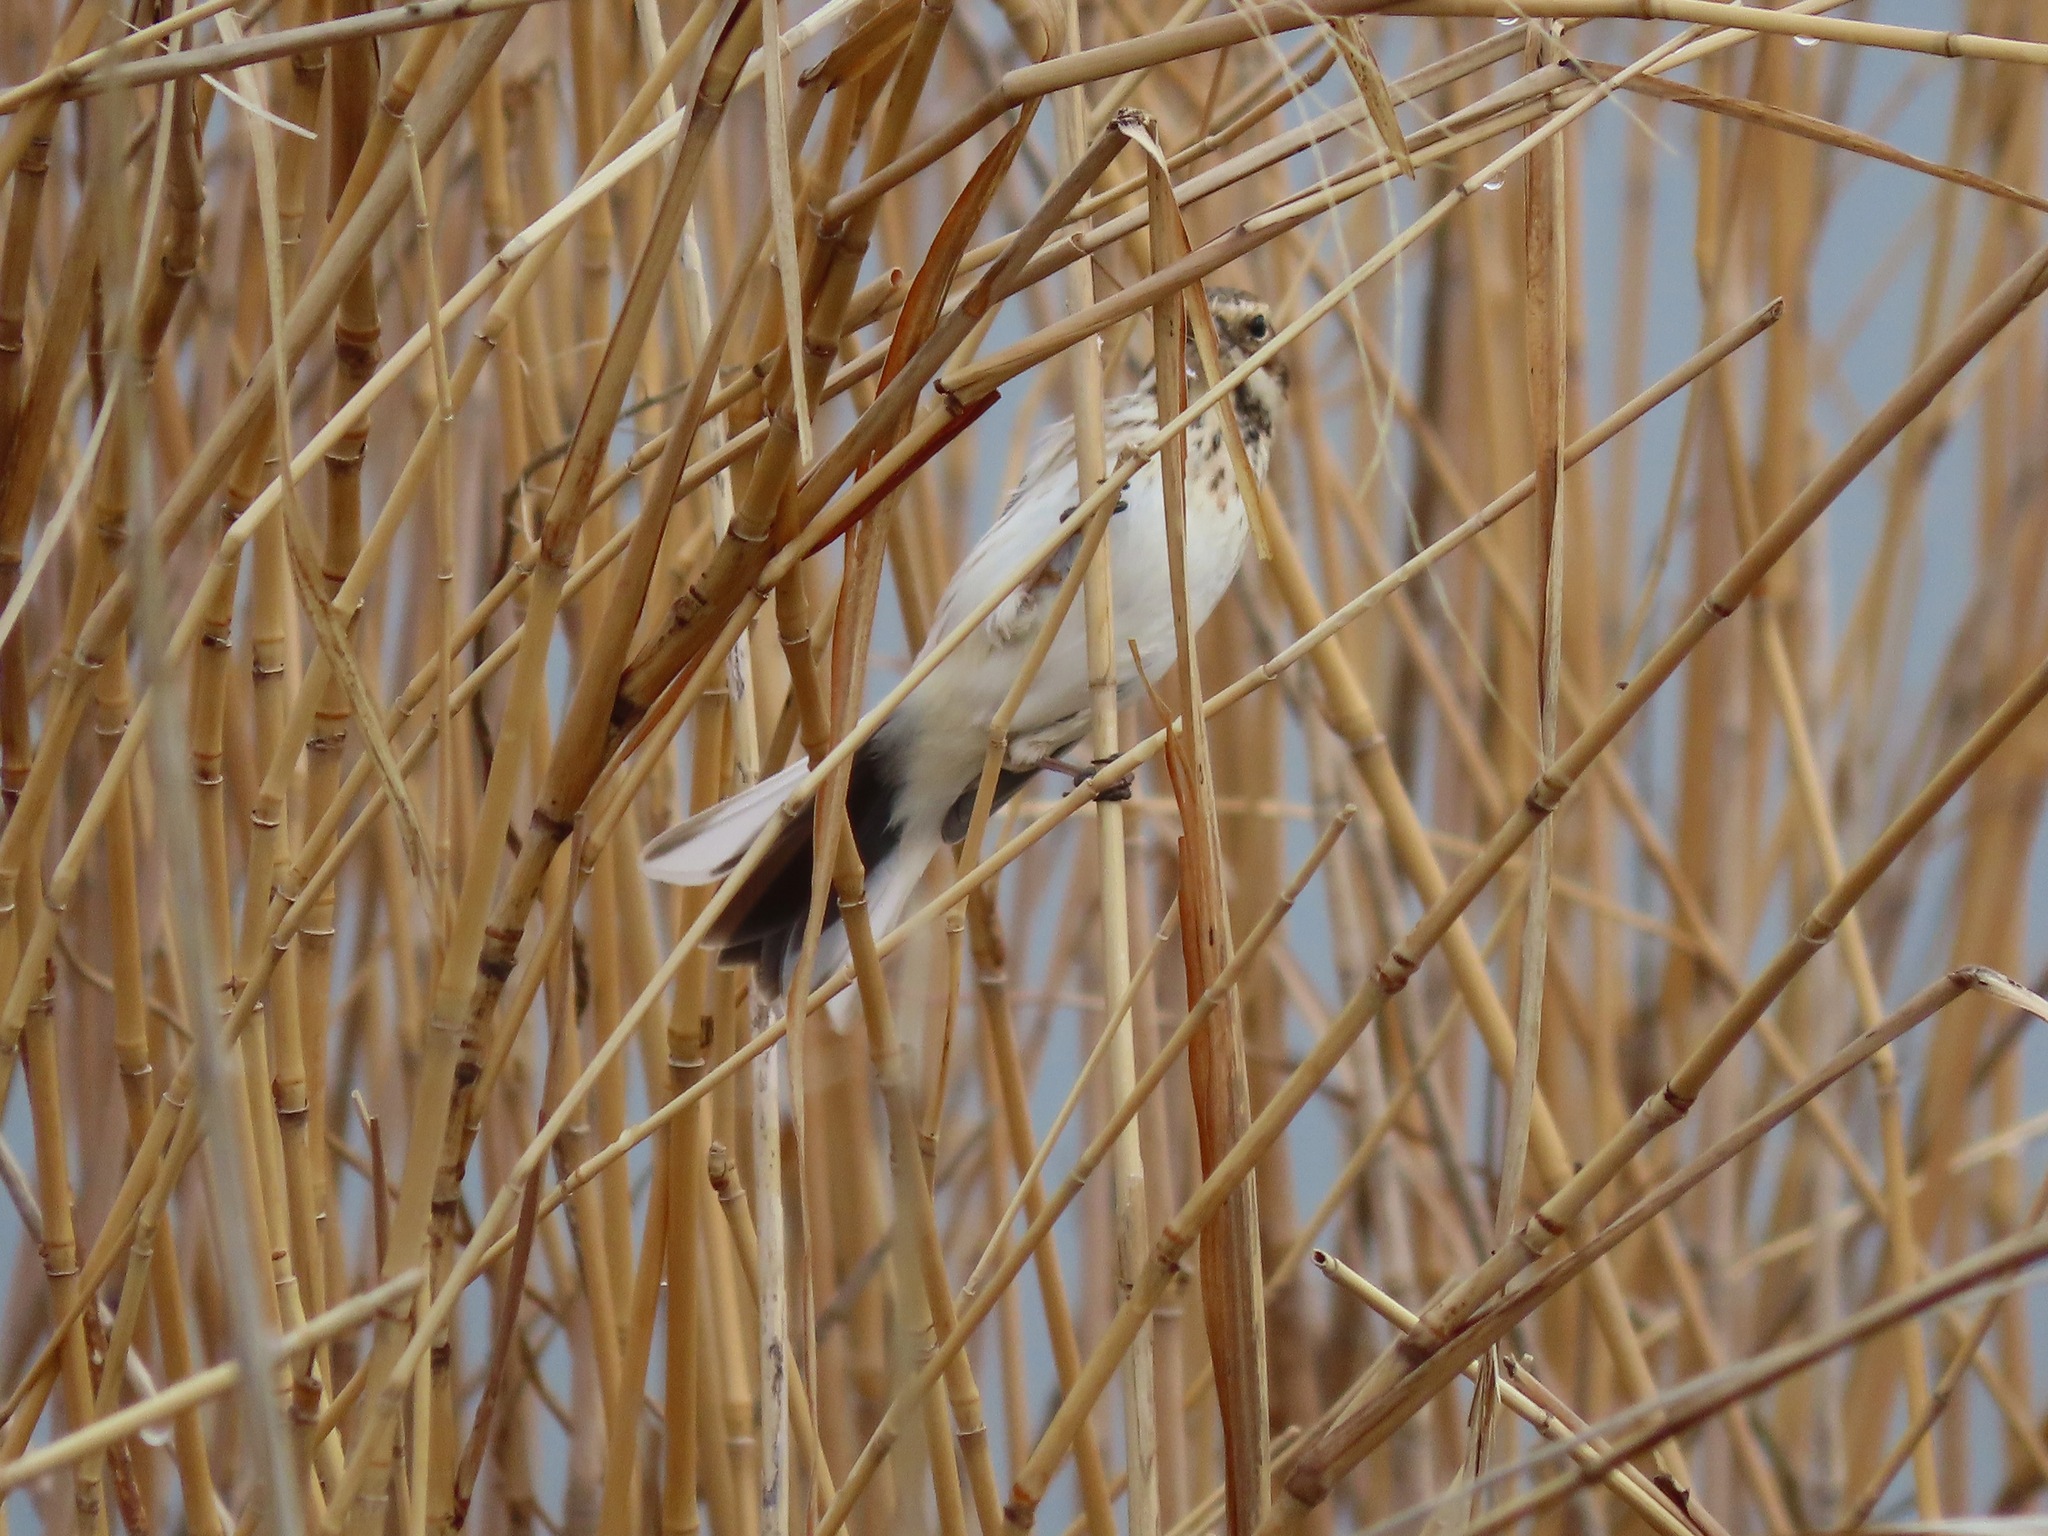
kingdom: Animalia
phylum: Chordata
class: Aves
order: Passeriformes
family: Emberizidae
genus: Emberiza
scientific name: Emberiza schoeniclus
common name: Reed bunting
